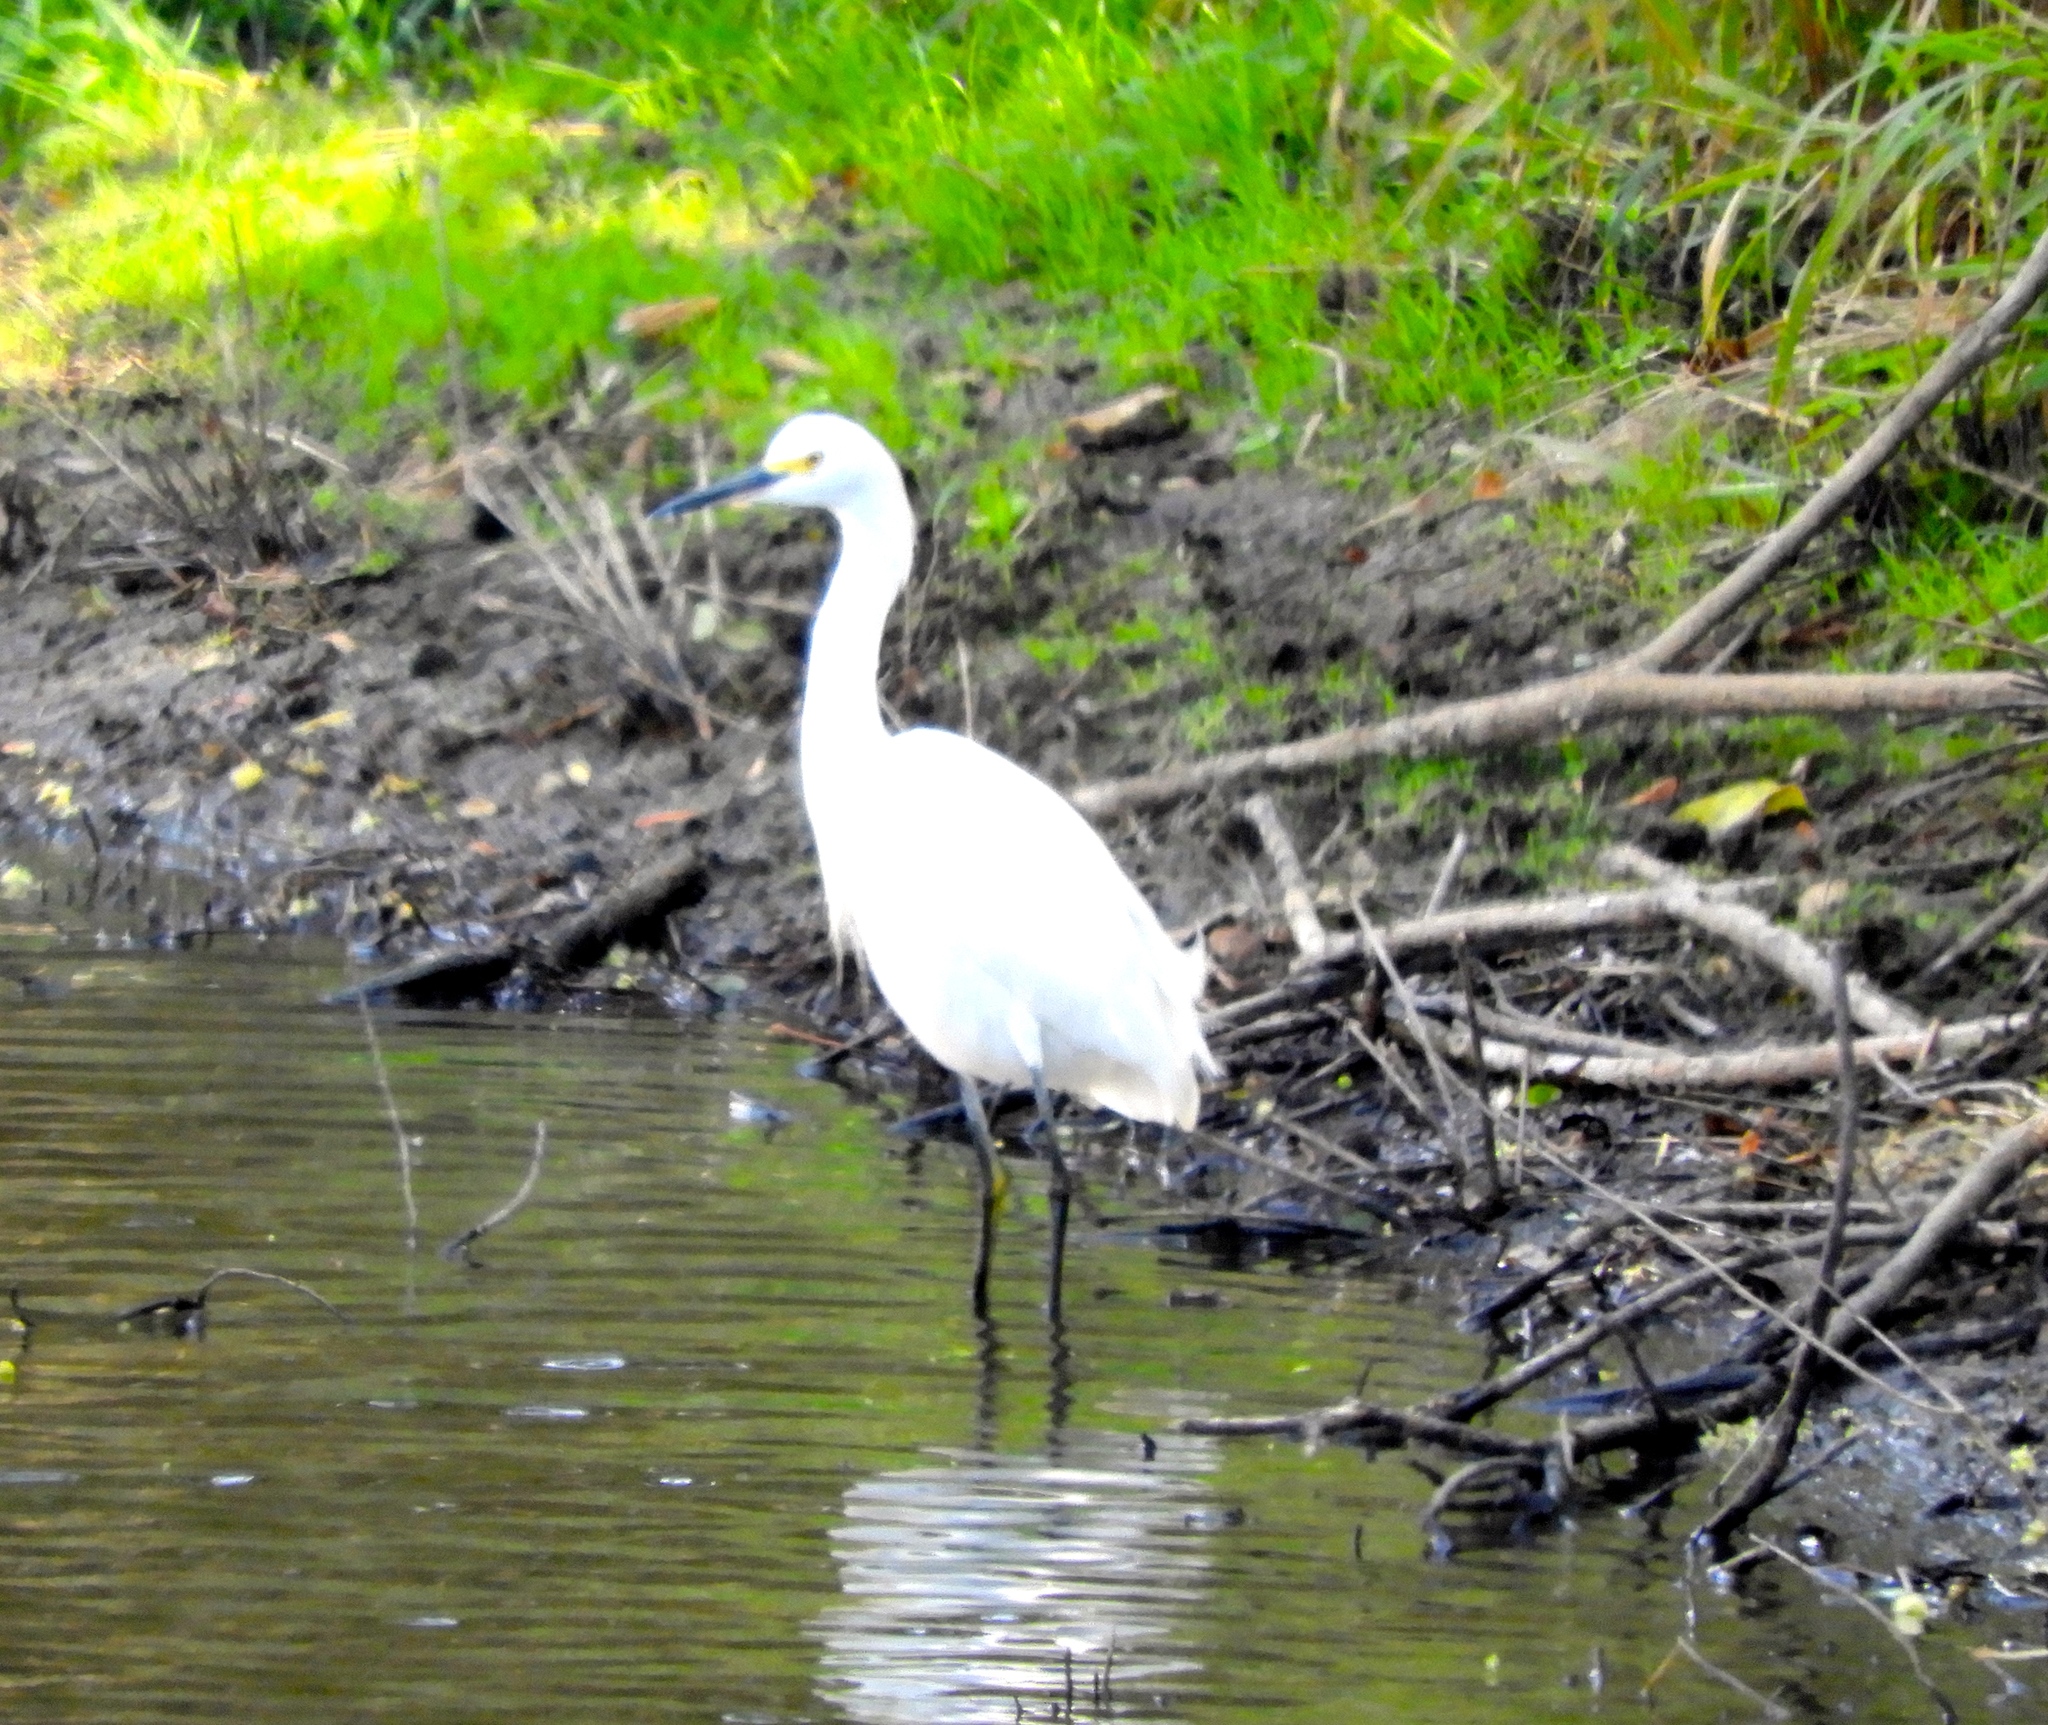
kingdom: Animalia
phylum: Chordata
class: Aves
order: Pelecaniformes
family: Ardeidae
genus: Egretta
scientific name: Egretta thula
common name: Snowy egret
